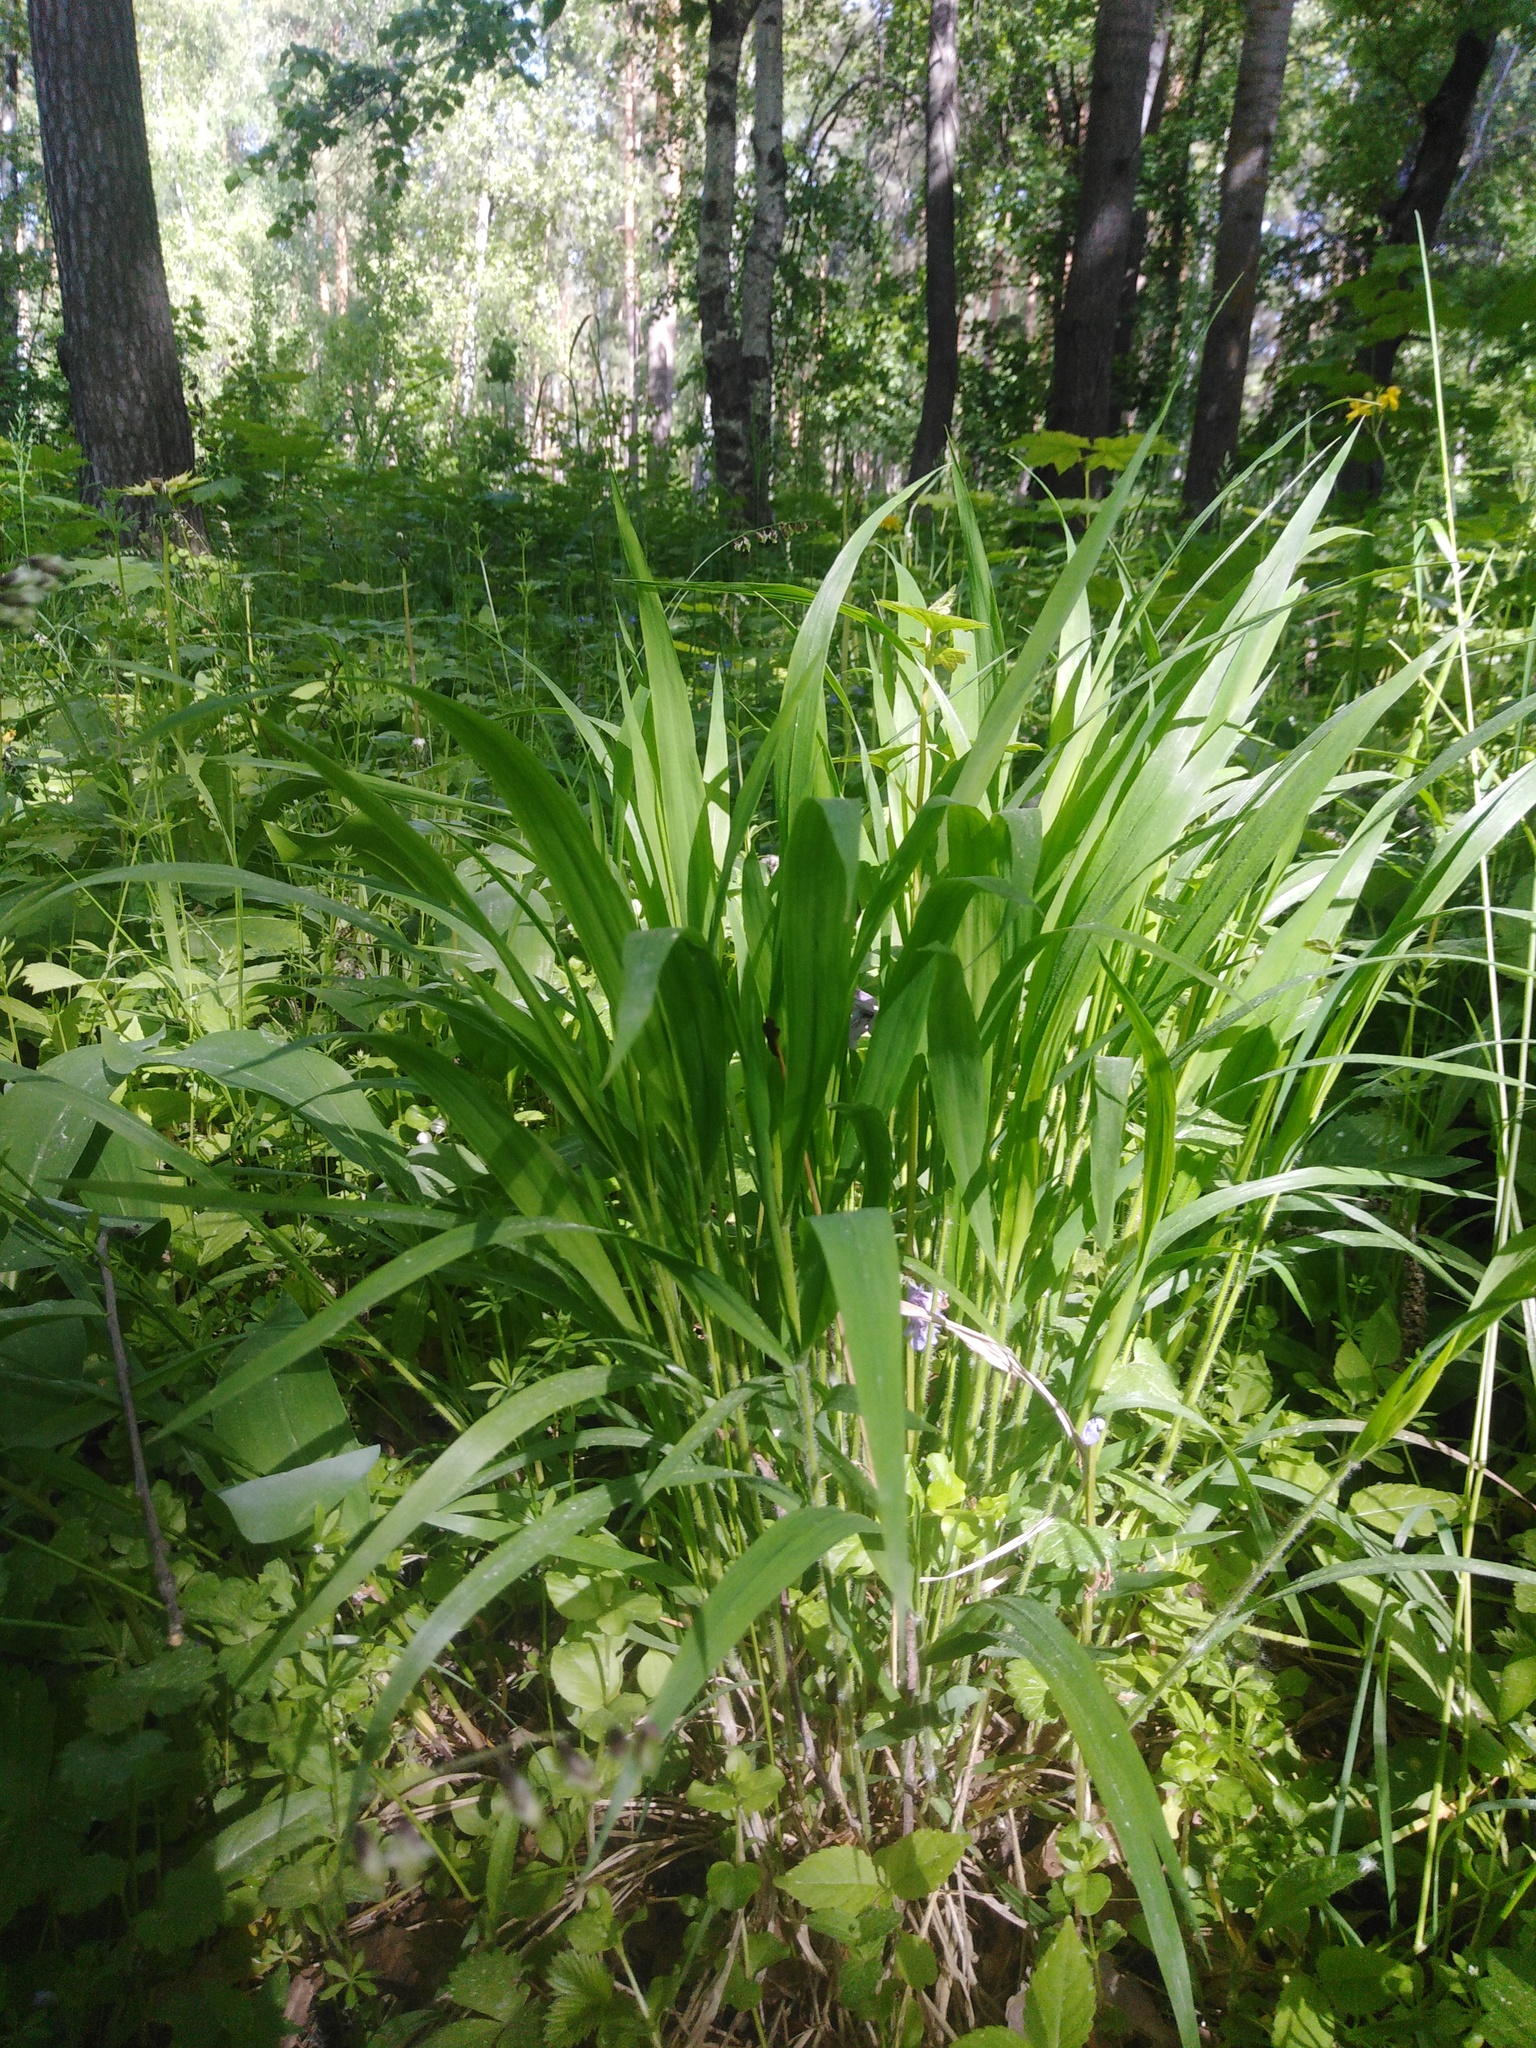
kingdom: Plantae
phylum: Tracheophyta
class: Liliopsida
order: Poales
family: Poaceae
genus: Brachypodium
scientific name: Brachypodium sylvaticum
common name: False-brome
